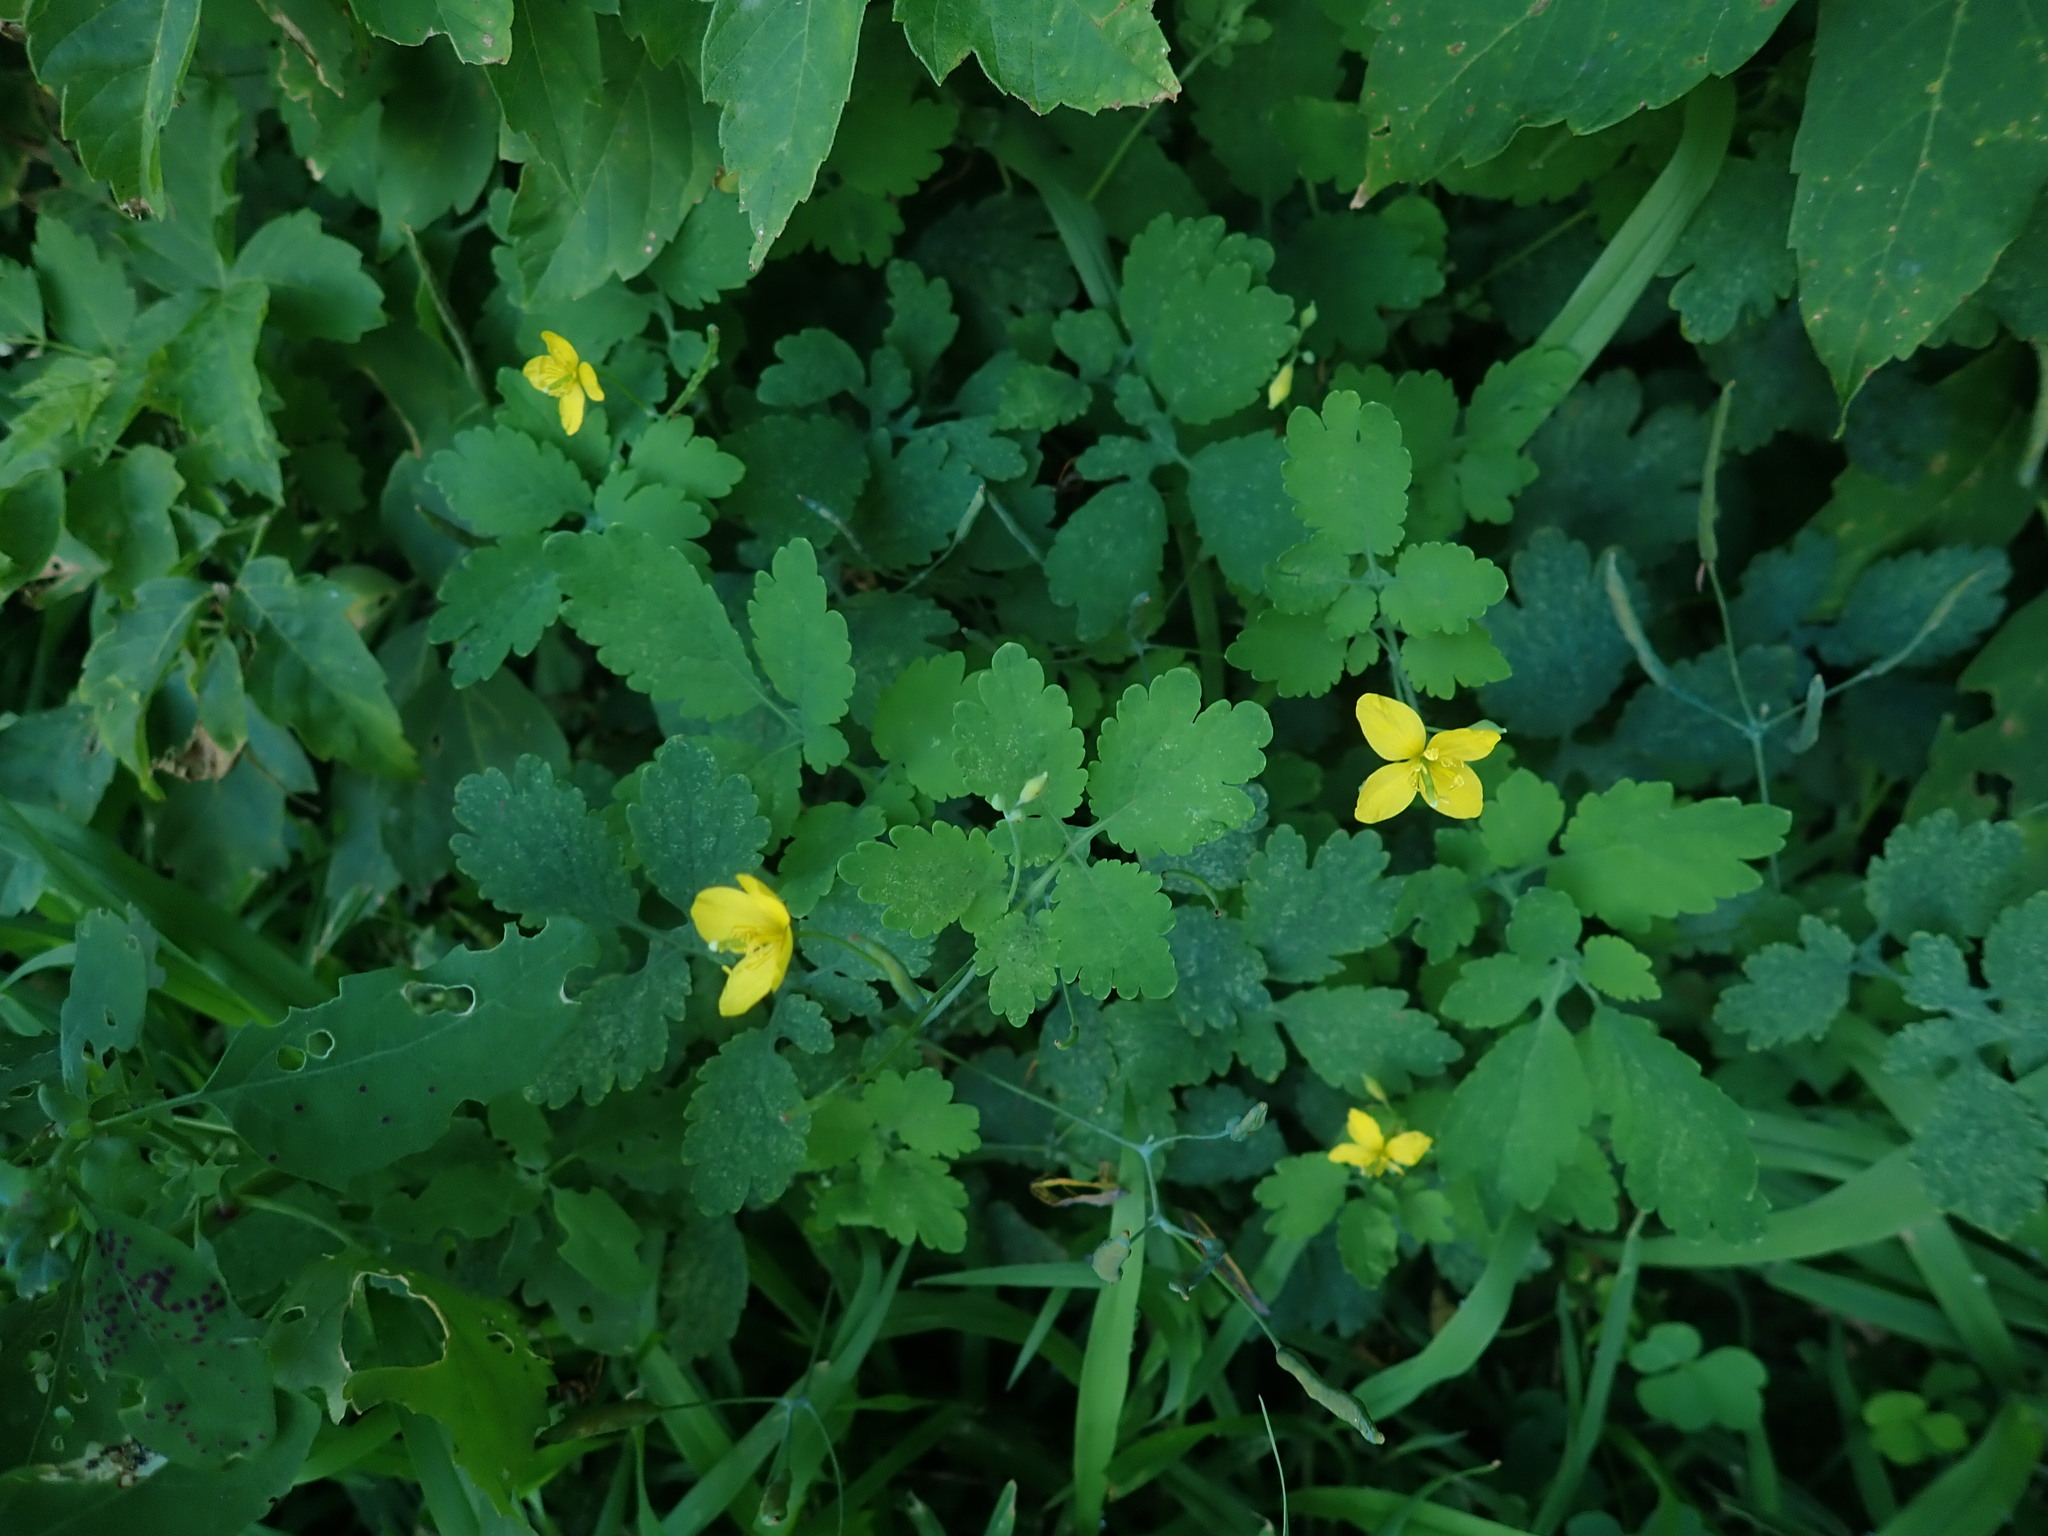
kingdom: Plantae
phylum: Tracheophyta
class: Magnoliopsida
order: Ranunculales
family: Papaveraceae
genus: Chelidonium
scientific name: Chelidonium majus
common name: Greater celandine
